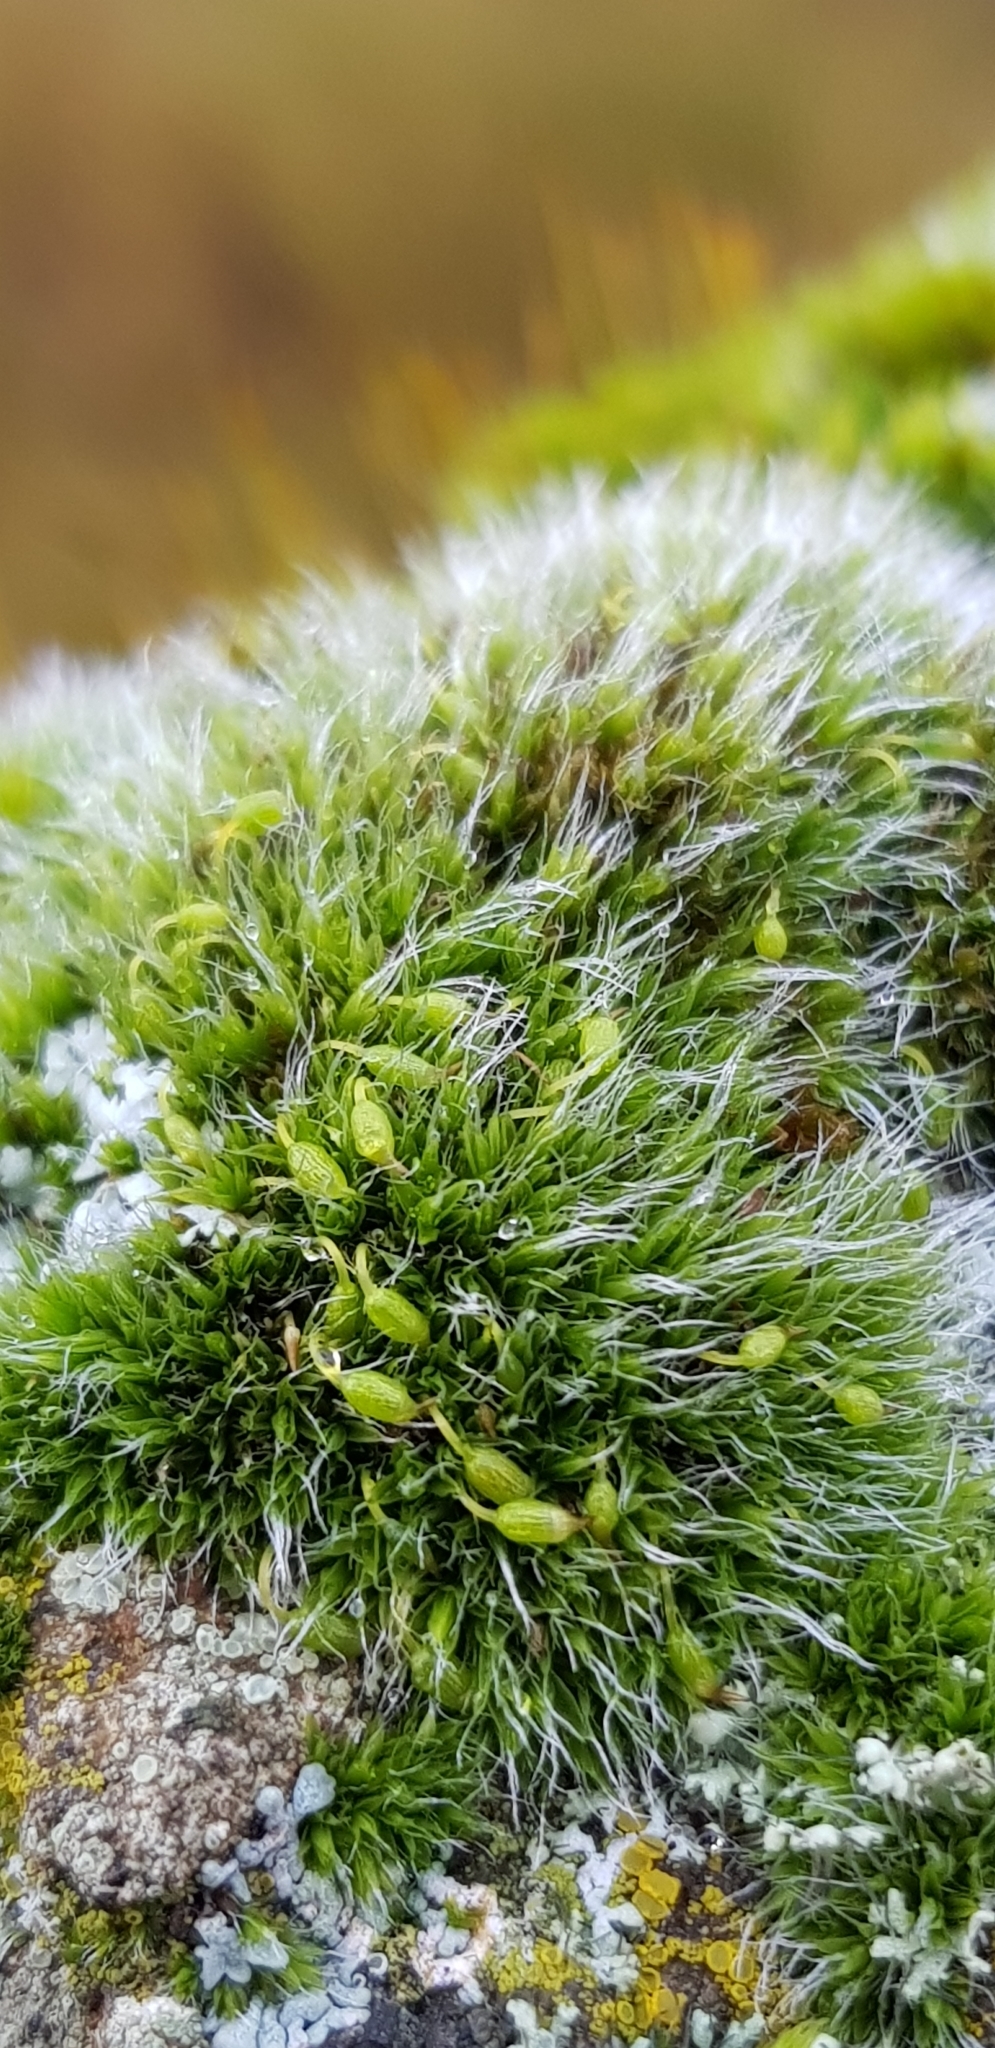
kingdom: Plantae
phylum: Bryophyta
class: Bryopsida
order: Grimmiales
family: Grimmiaceae
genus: Grimmia
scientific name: Grimmia pulvinata
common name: Grey-cushioned grimmia
